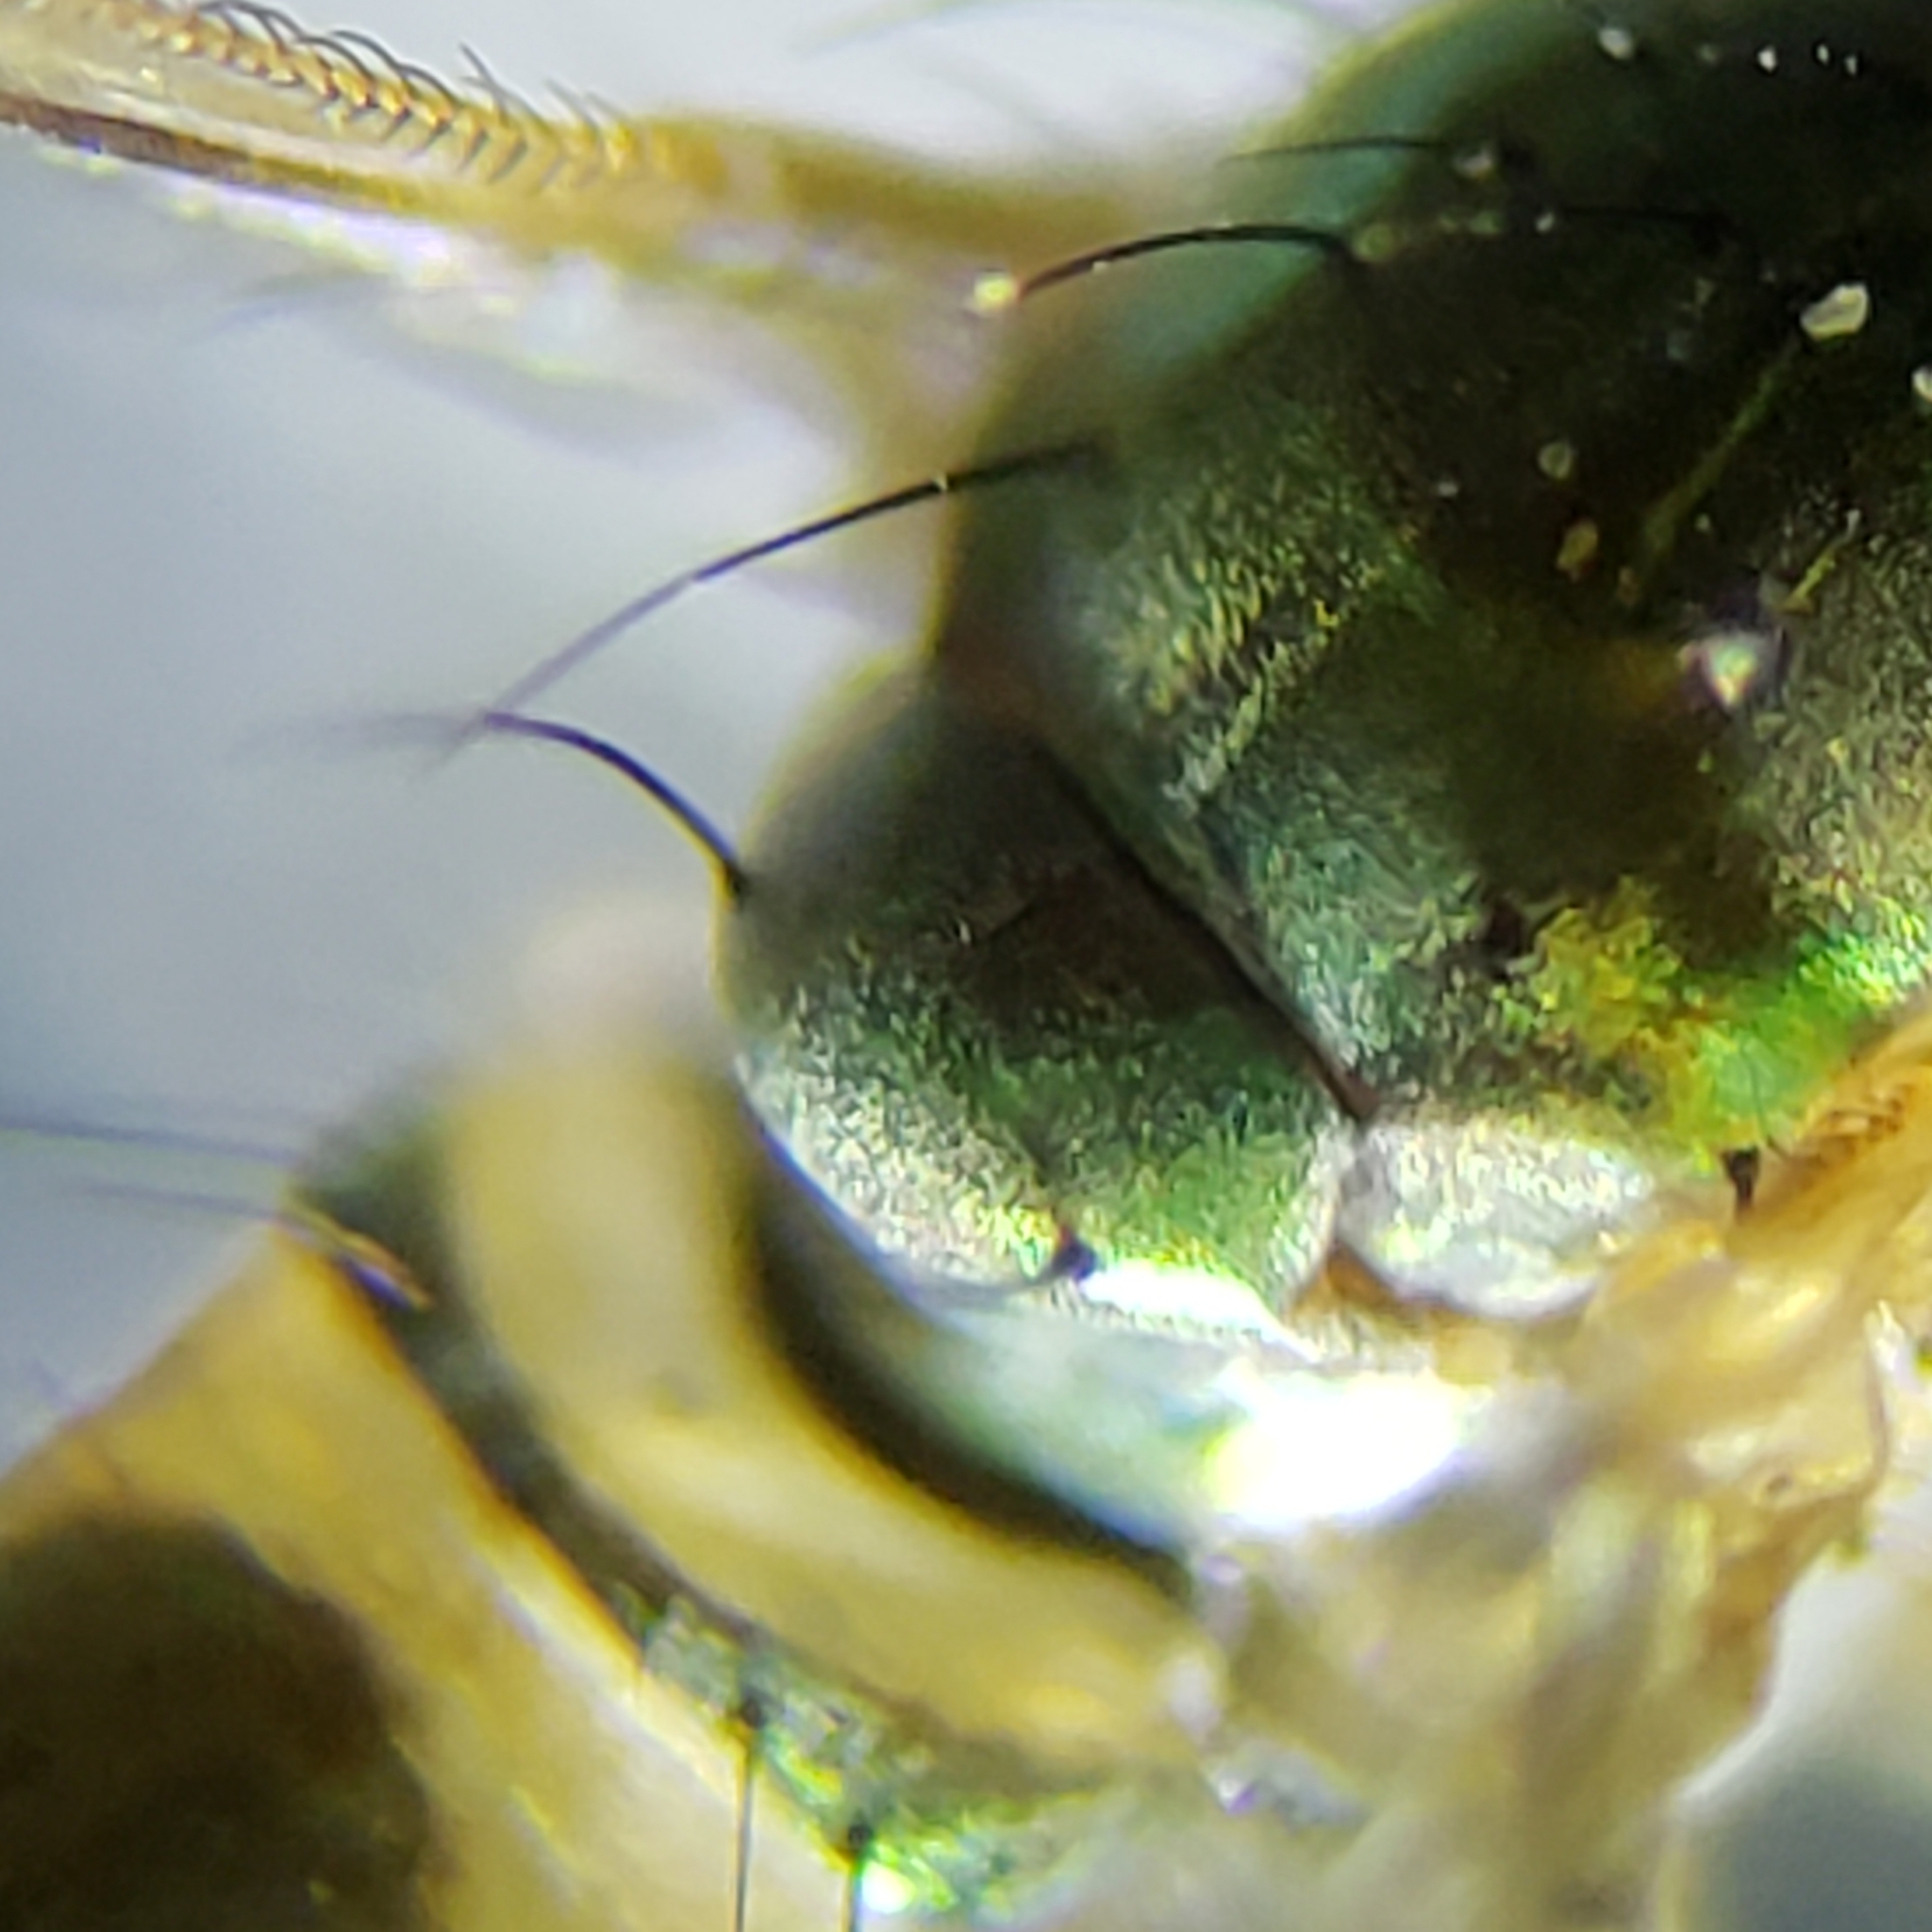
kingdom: Animalia
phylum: Arthropoda
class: Insecta
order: Diptera
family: Dolichopodidae
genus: Amblypsilopus
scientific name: Amblypsilopus psittacinus
